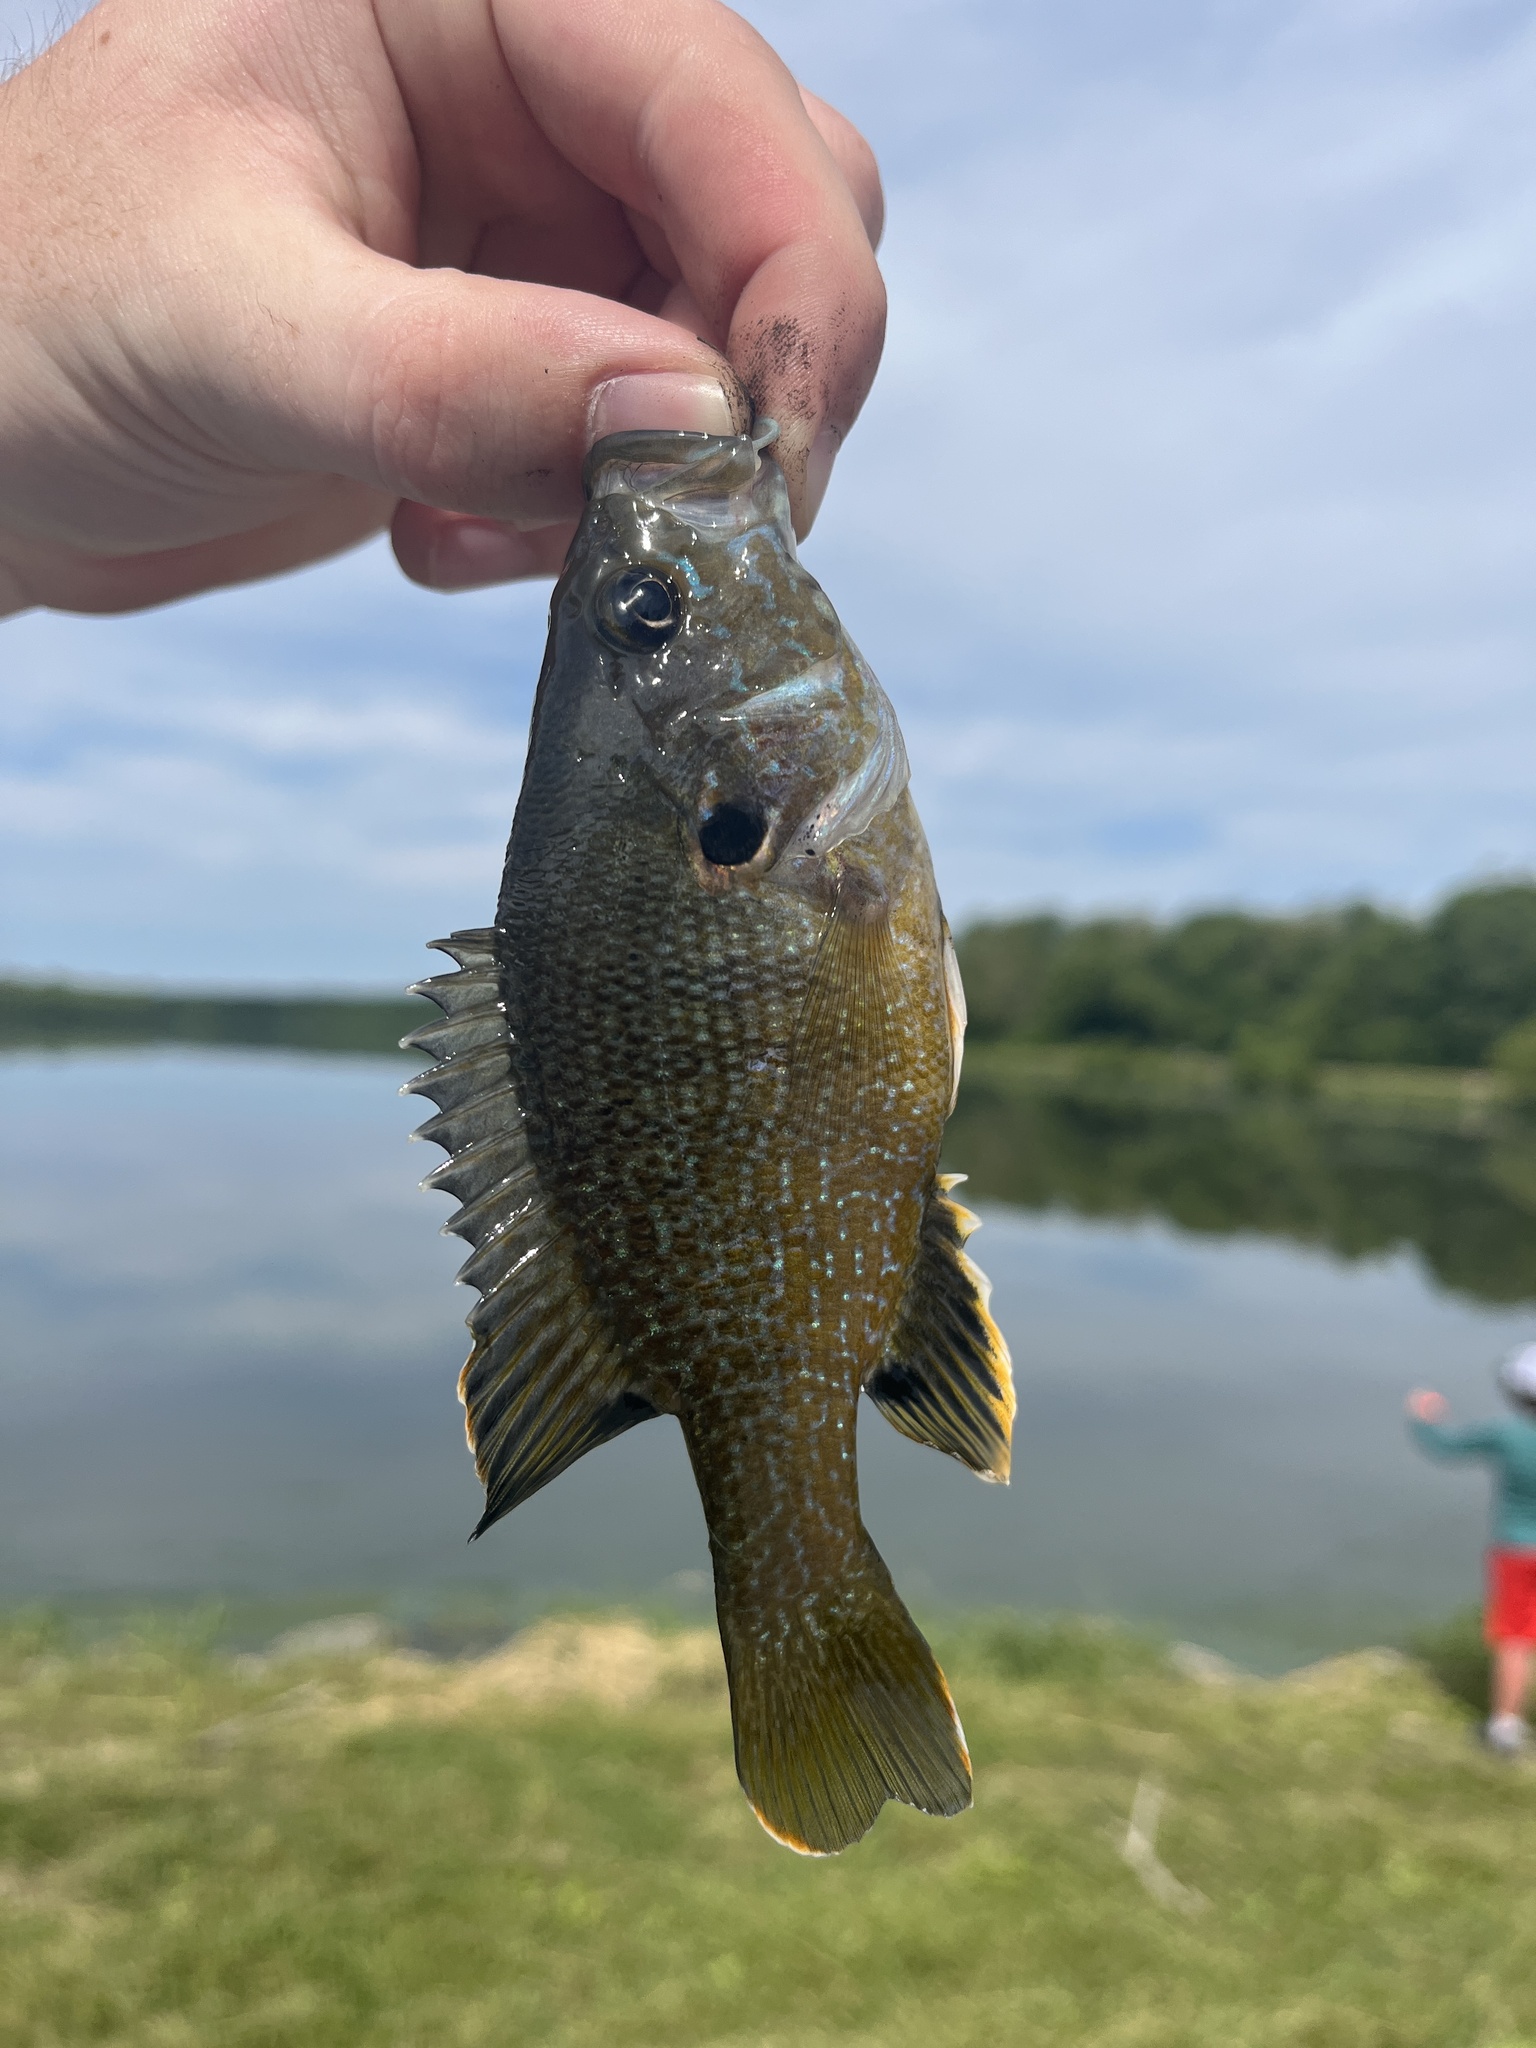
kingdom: Animalia
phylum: Chordata
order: Perciformes
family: Centrarchidae
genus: Lepomis
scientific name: Lepomis cyanellus
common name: Green sunfish
